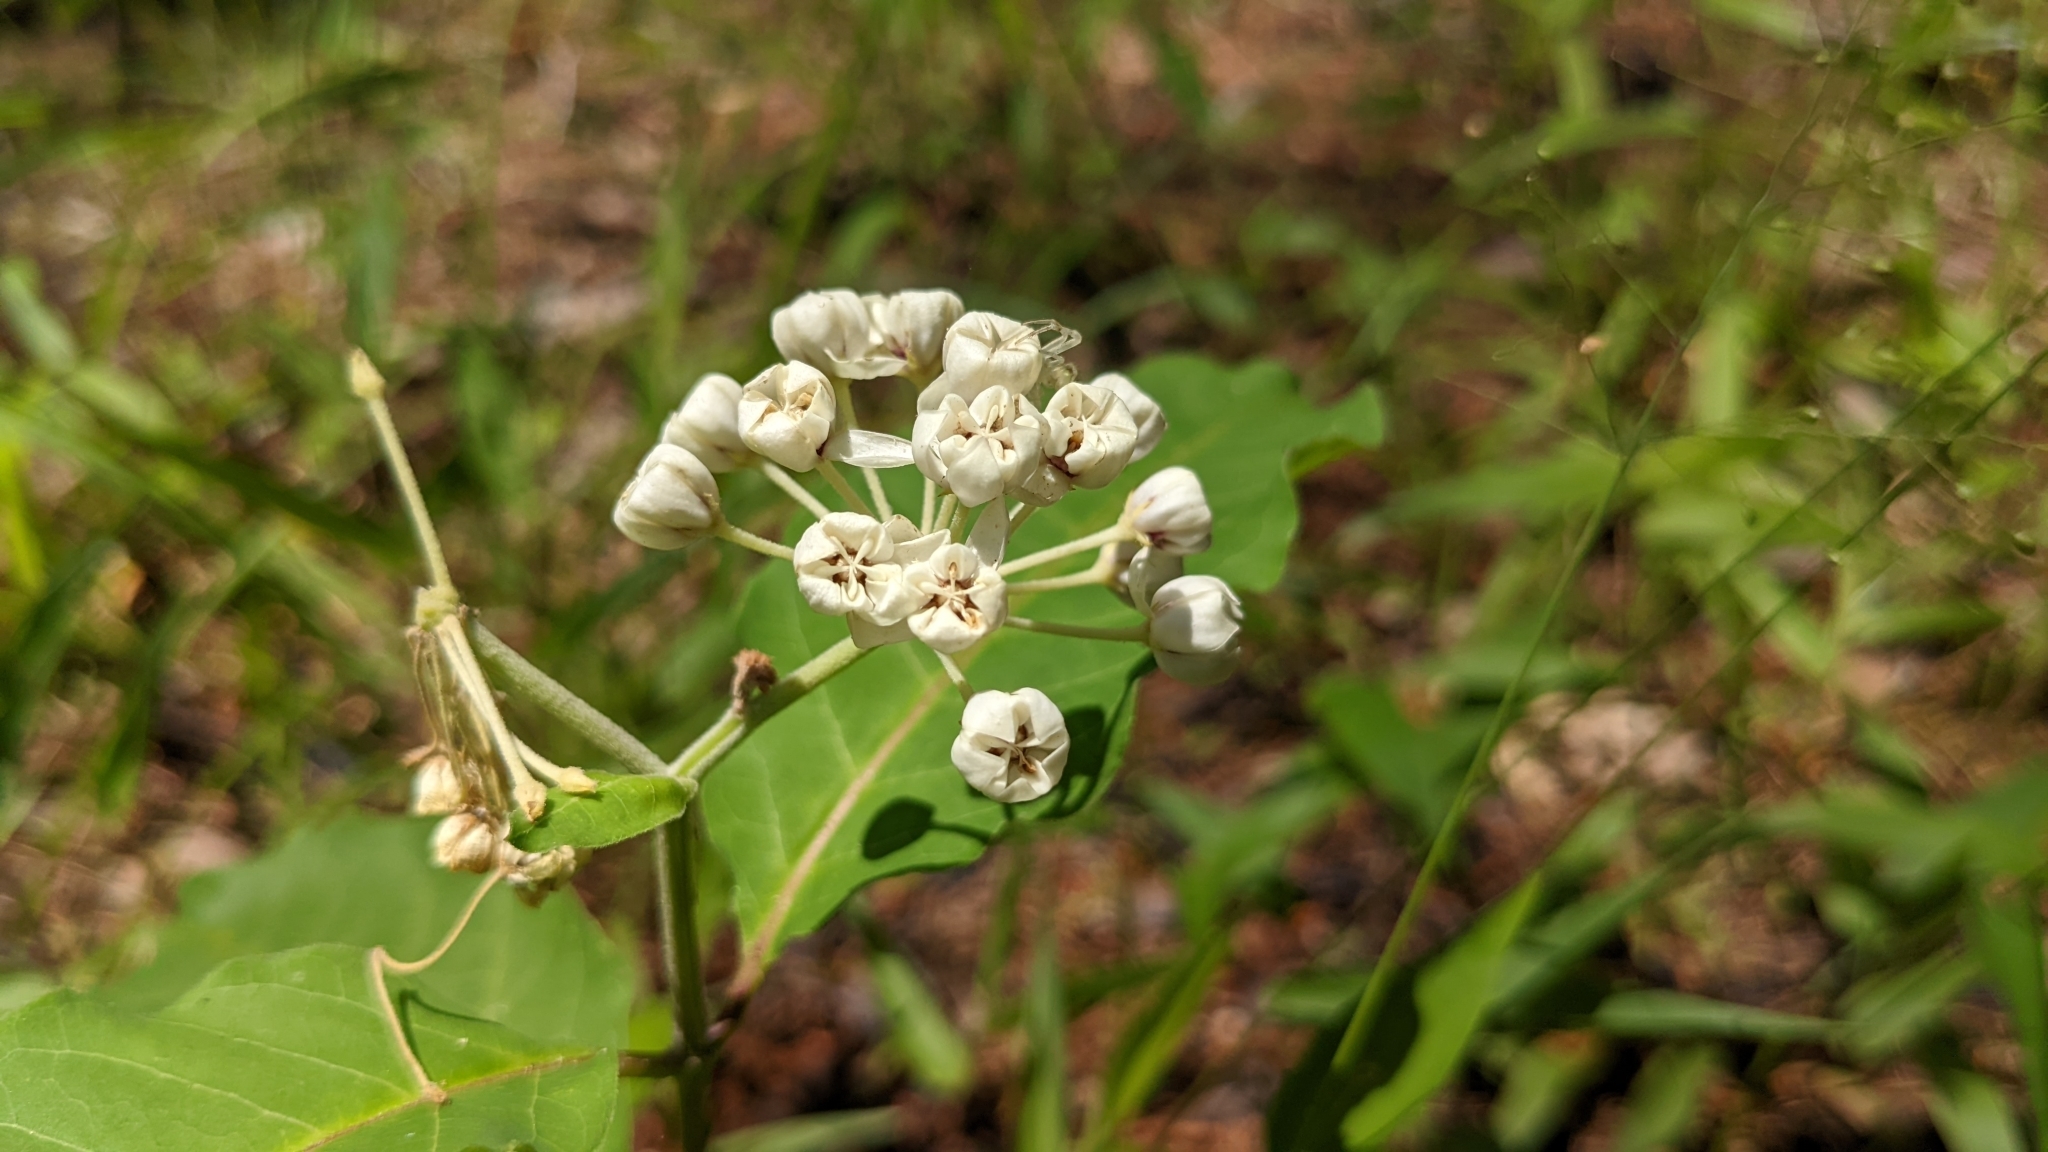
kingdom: Plantae
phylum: Tracheophyta
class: Magnoliopsida
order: Gentianales
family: Apocynaceae
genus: Asclepias
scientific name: Asclepias variegata
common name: Variegated milkweed
